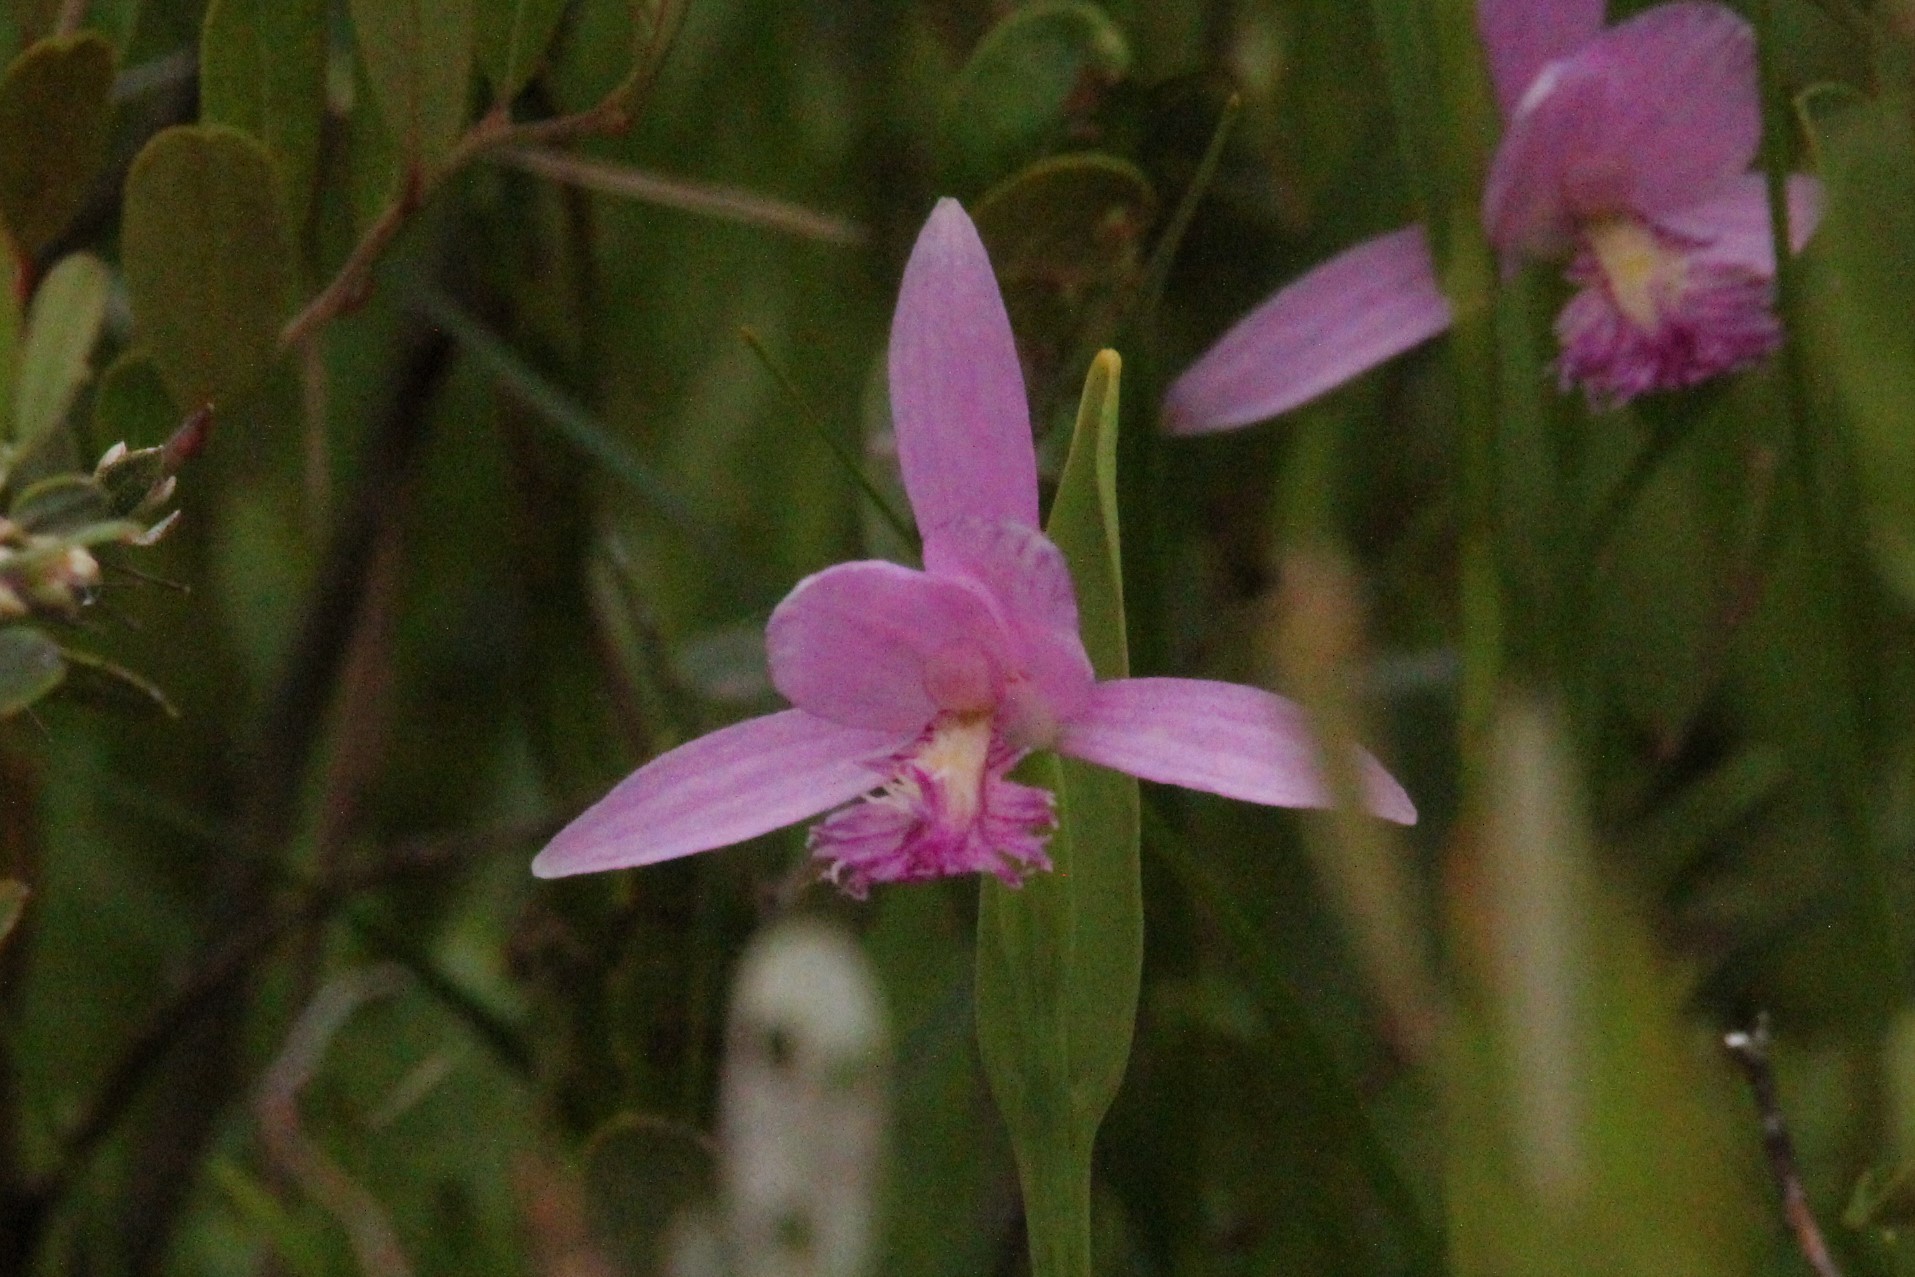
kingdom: Plantae
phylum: Tracheophyta
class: Liliopsida
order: Asparagales
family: Orchidaceae
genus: Pogonia
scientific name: Pogonia ophioglossoides
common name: Rose pogonia
